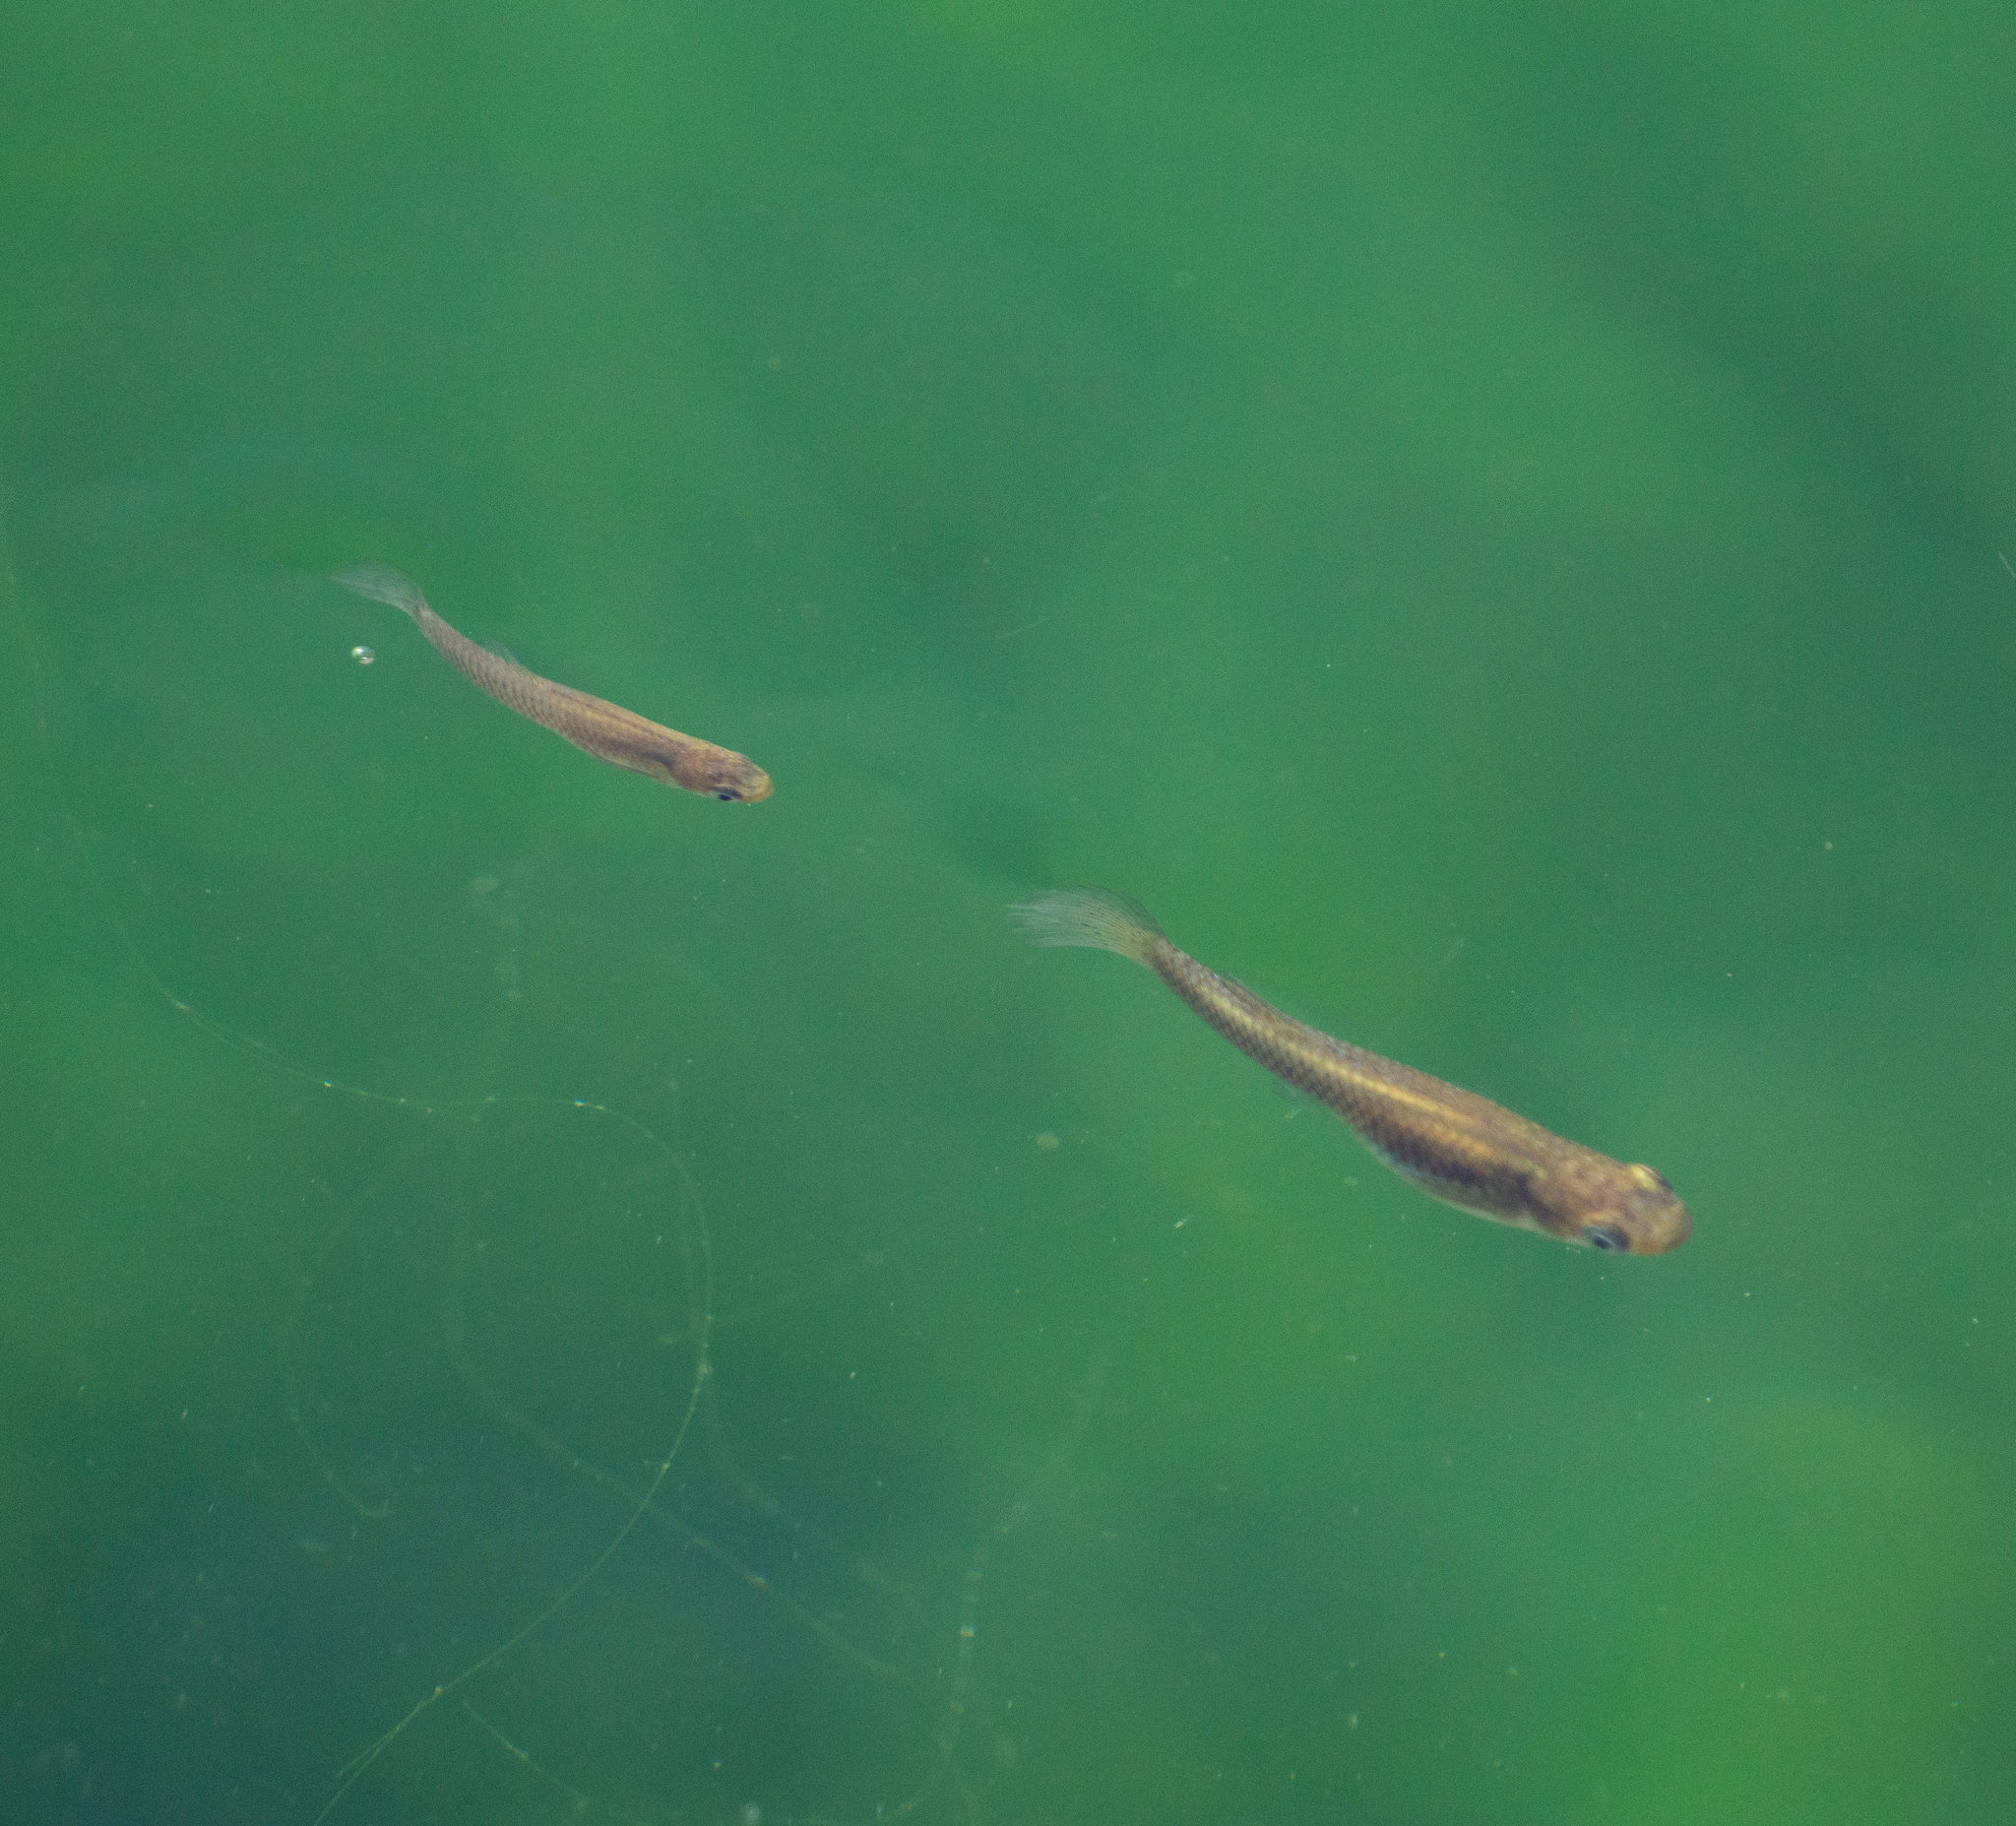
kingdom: Animalia
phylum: Chordata
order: Cyprinodontiformes
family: Poeciliidae
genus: Gambusia
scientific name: Gambusia affinis
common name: Mosquitofish
